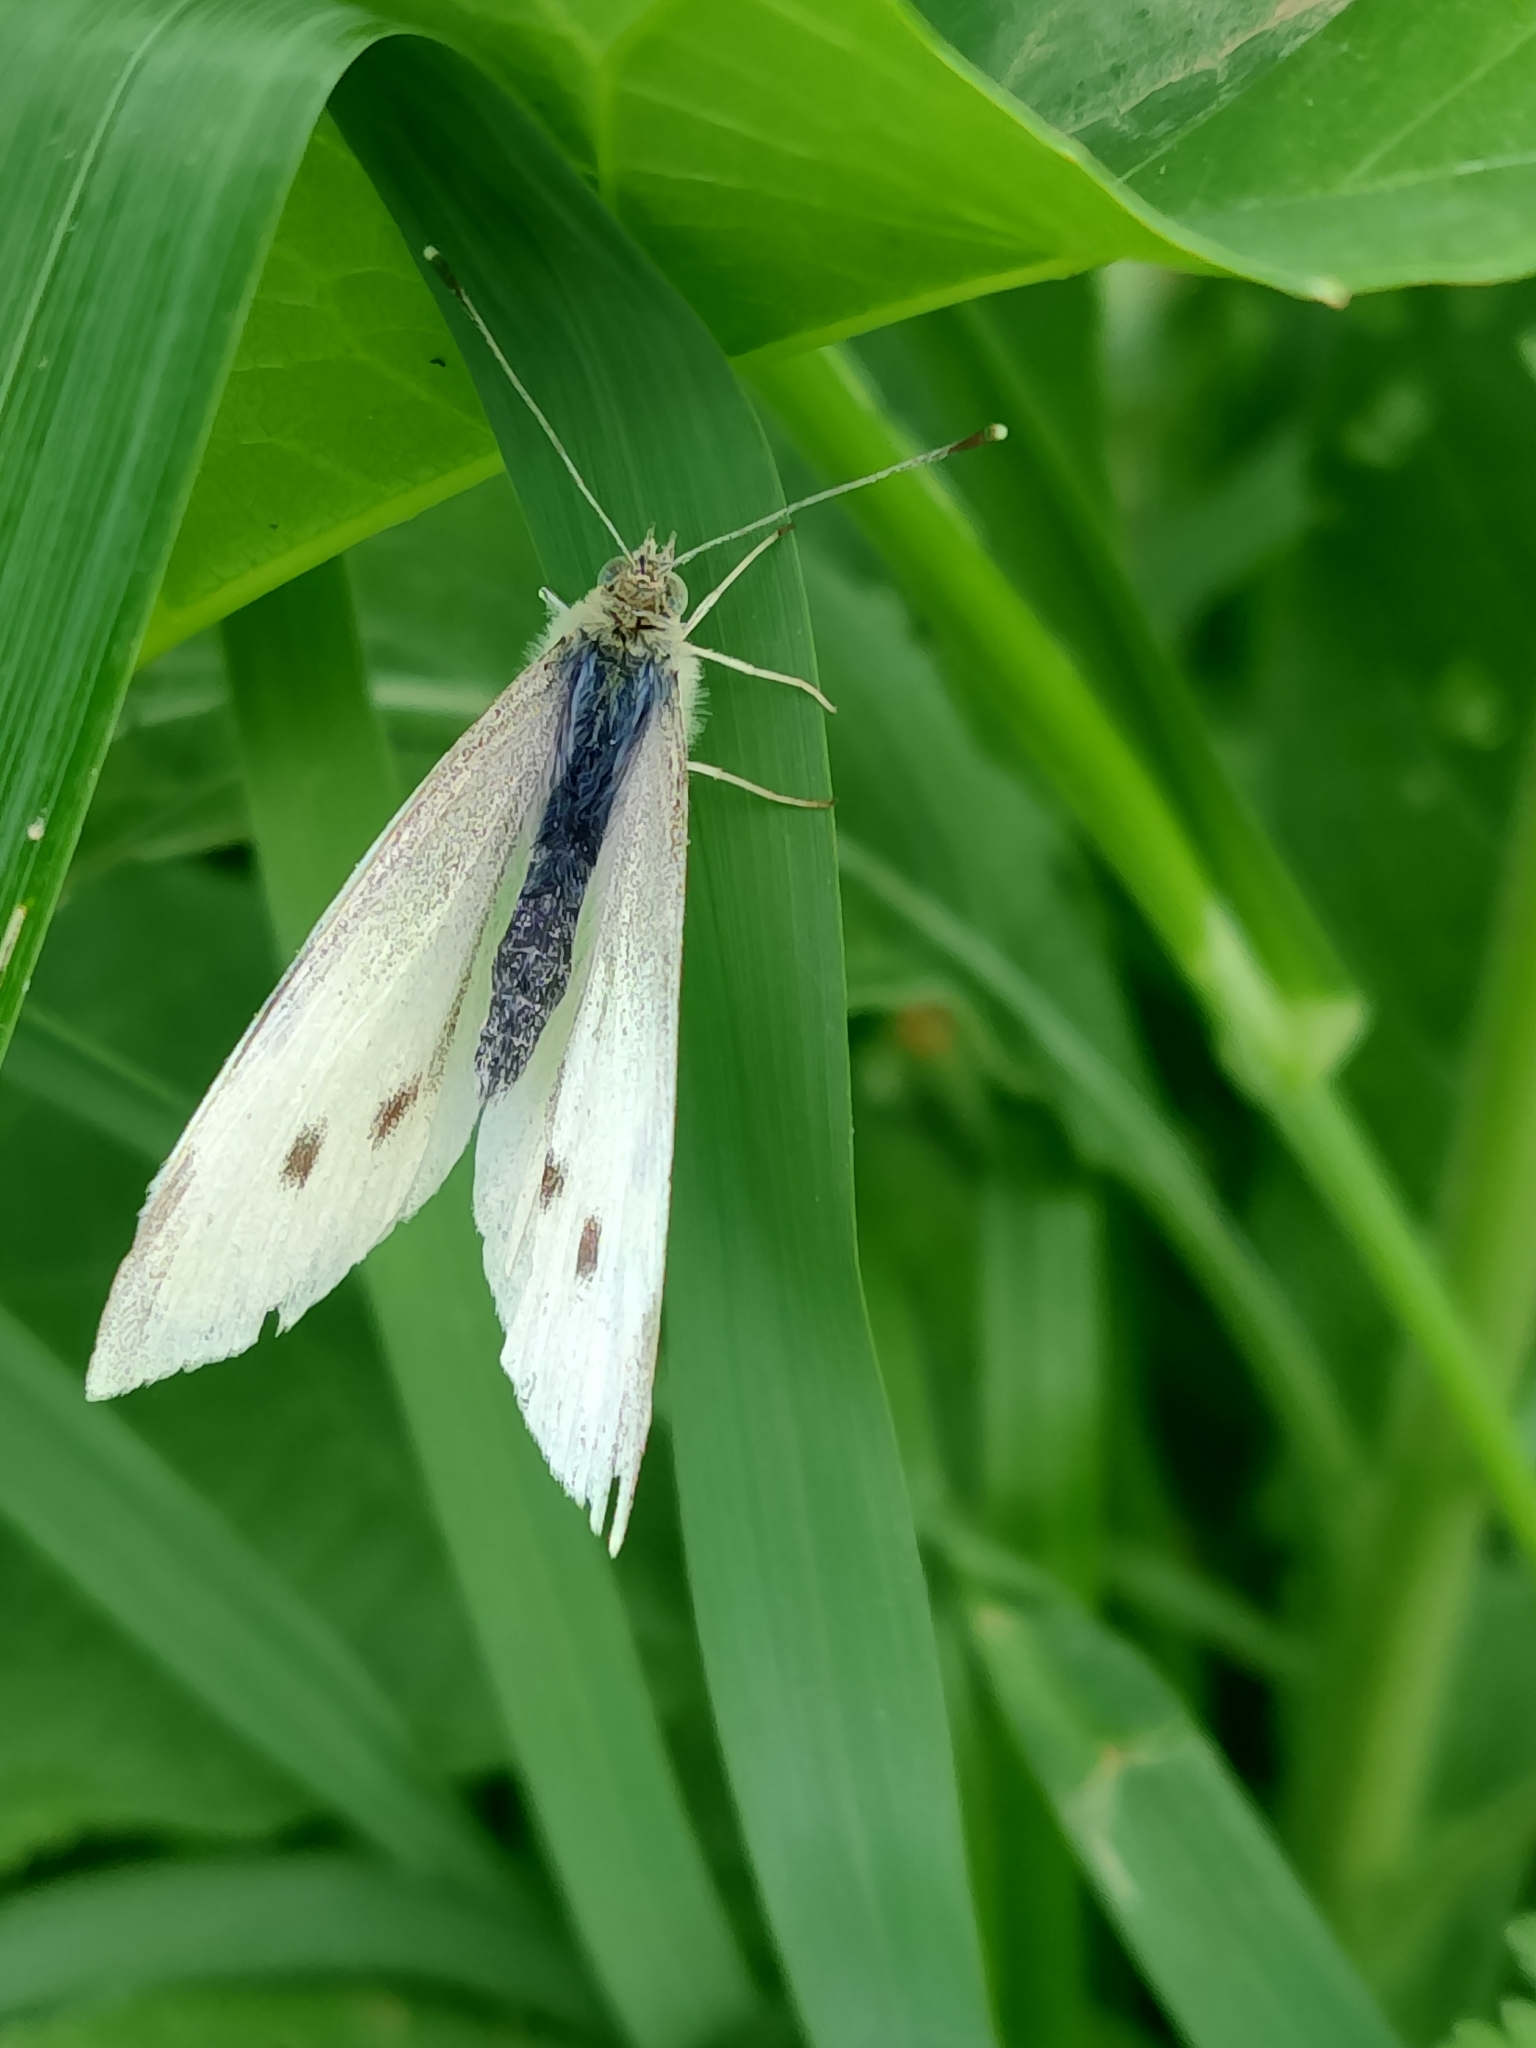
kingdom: Animalia
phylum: Arthropoda
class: Insecta
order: Lepidoptera
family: Pieridae
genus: Pieris
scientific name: Pieris rapae
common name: Small white
